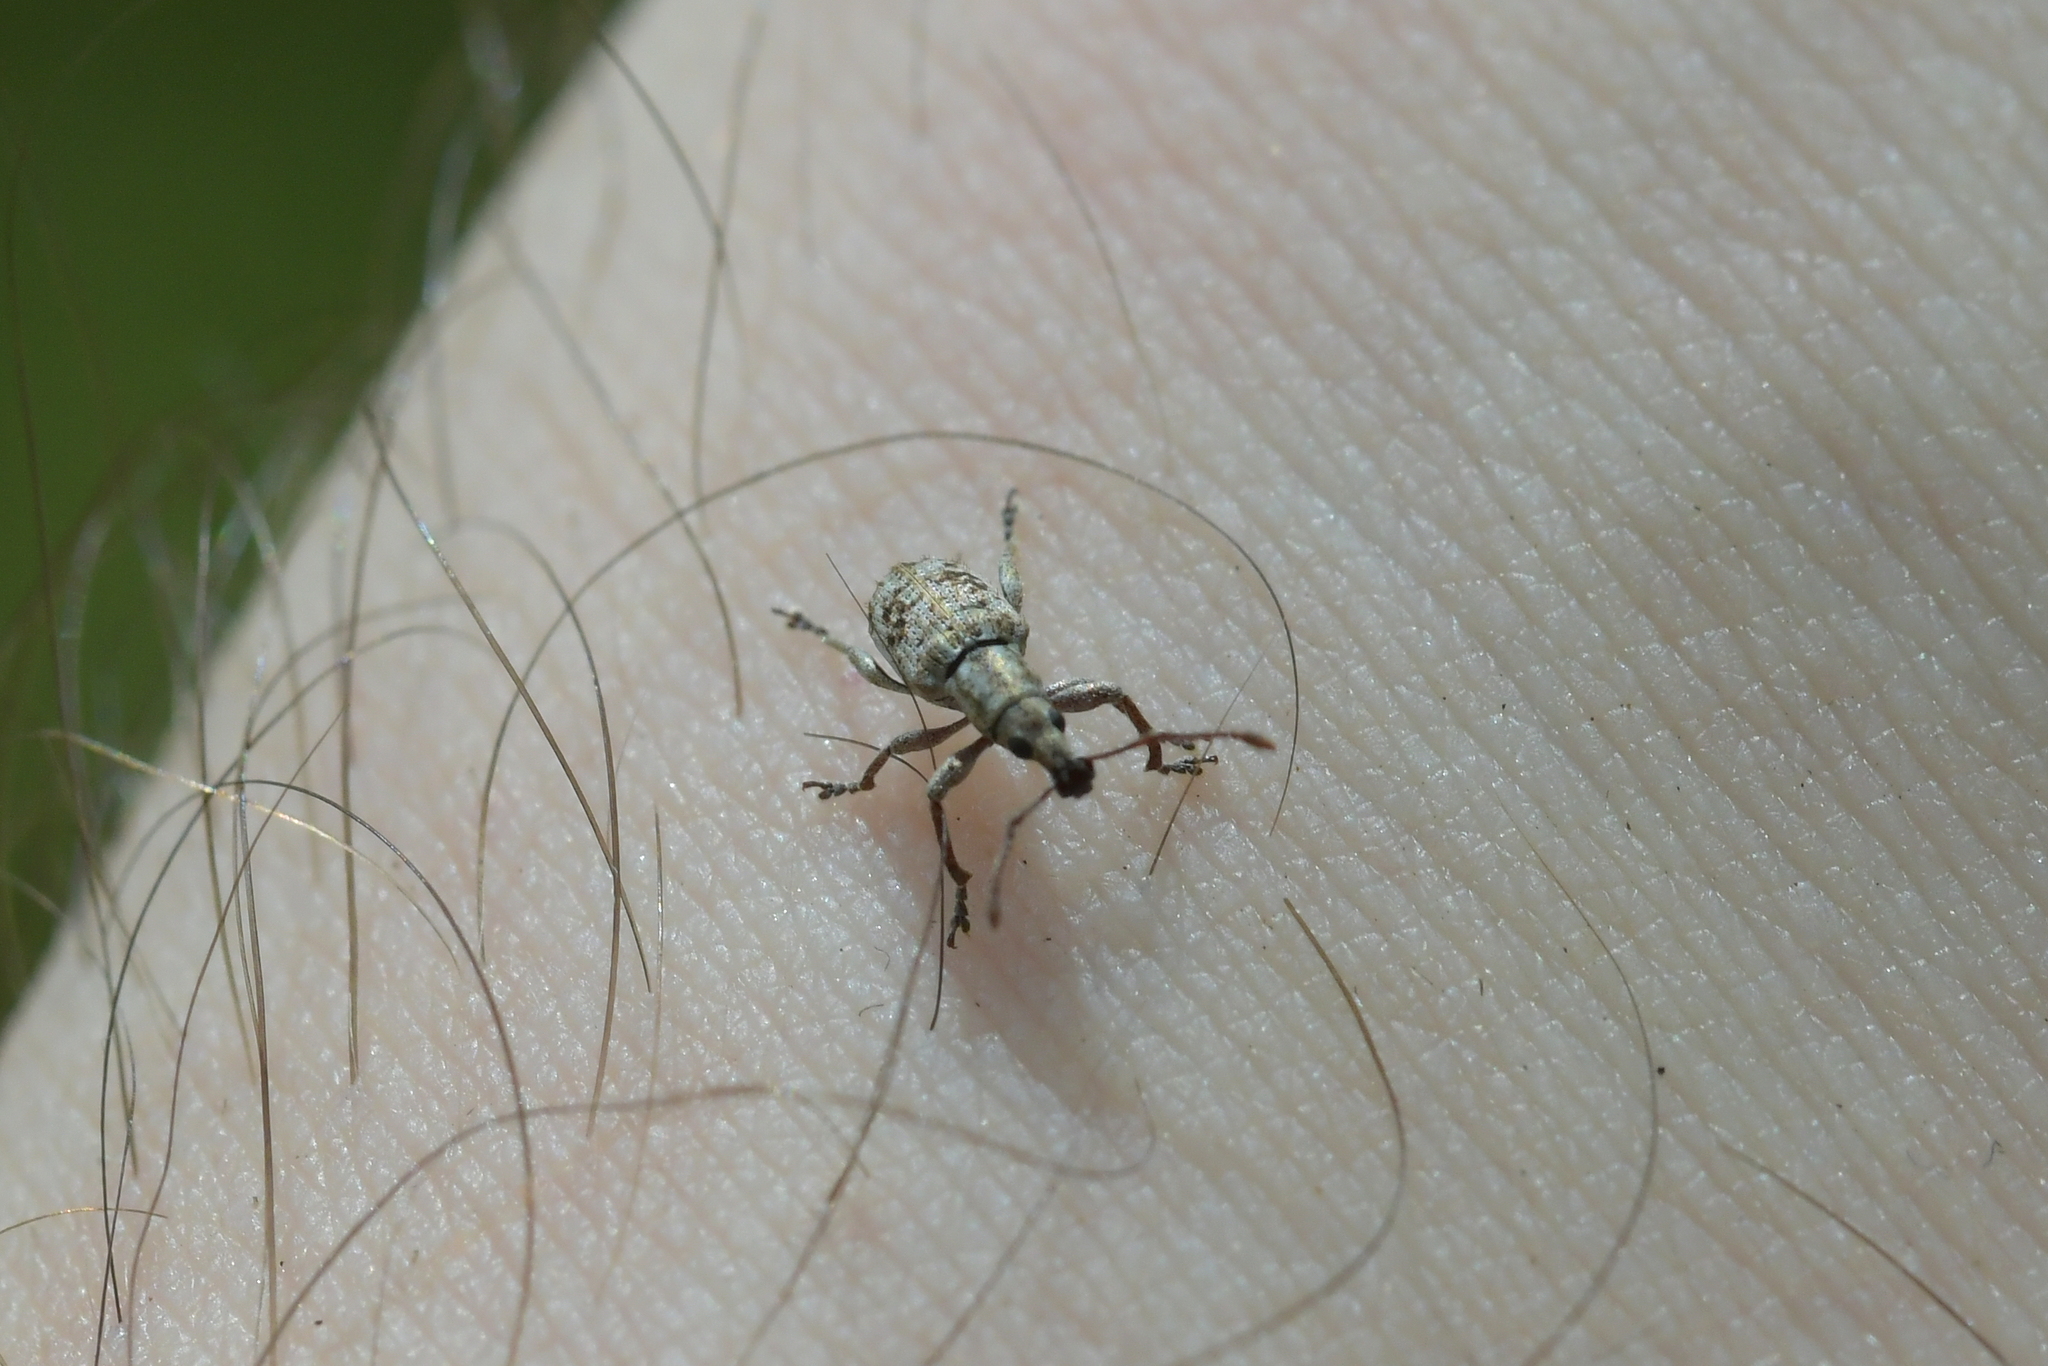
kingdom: Animalia
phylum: Arthropoda
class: Insecta
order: Coleoptera
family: Curculionidae
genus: Catoptes
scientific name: Catoptes planus
